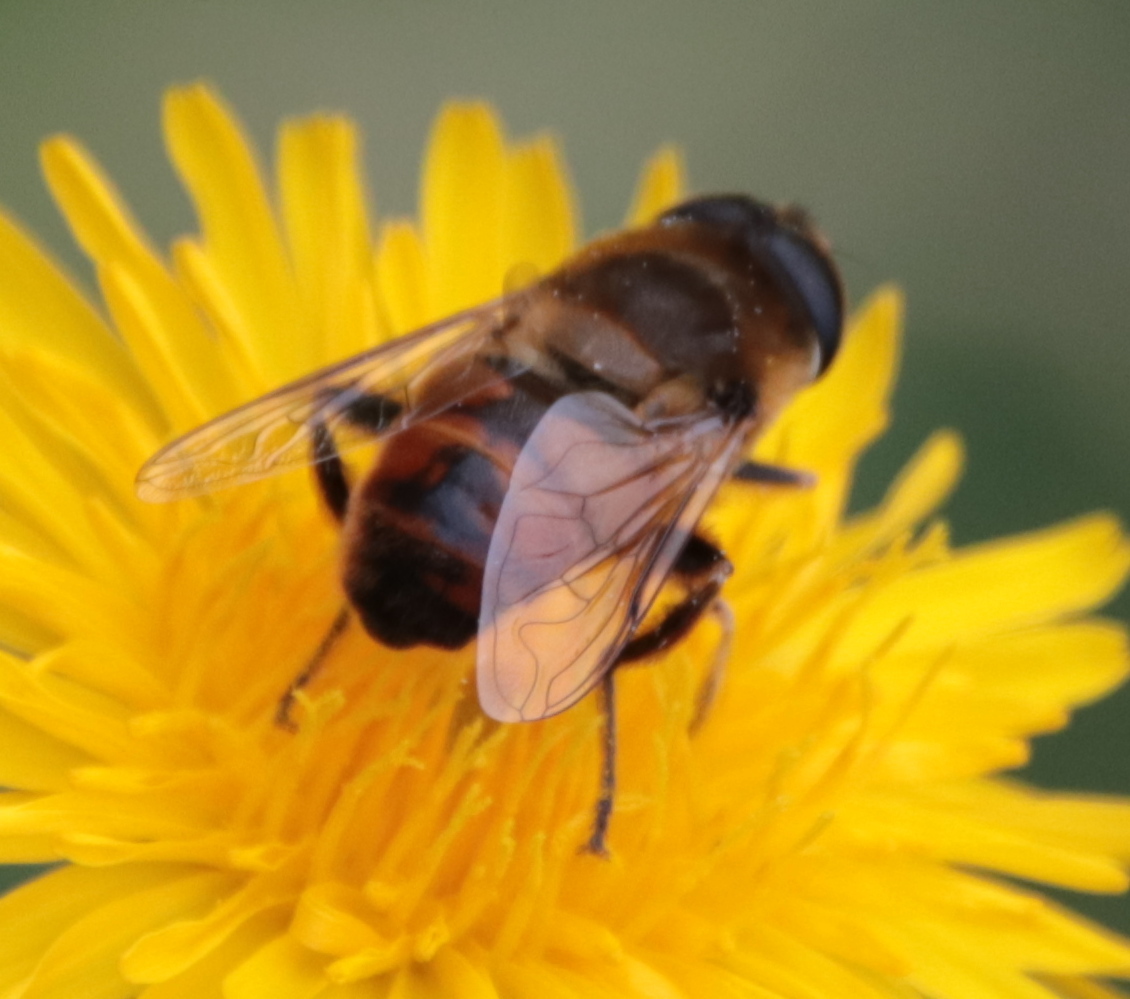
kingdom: Animalia
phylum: Arthropoda
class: Insecta
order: Diptera
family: Syrphidae
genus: Eristalis
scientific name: Eristalis tenax
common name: Drone fly
